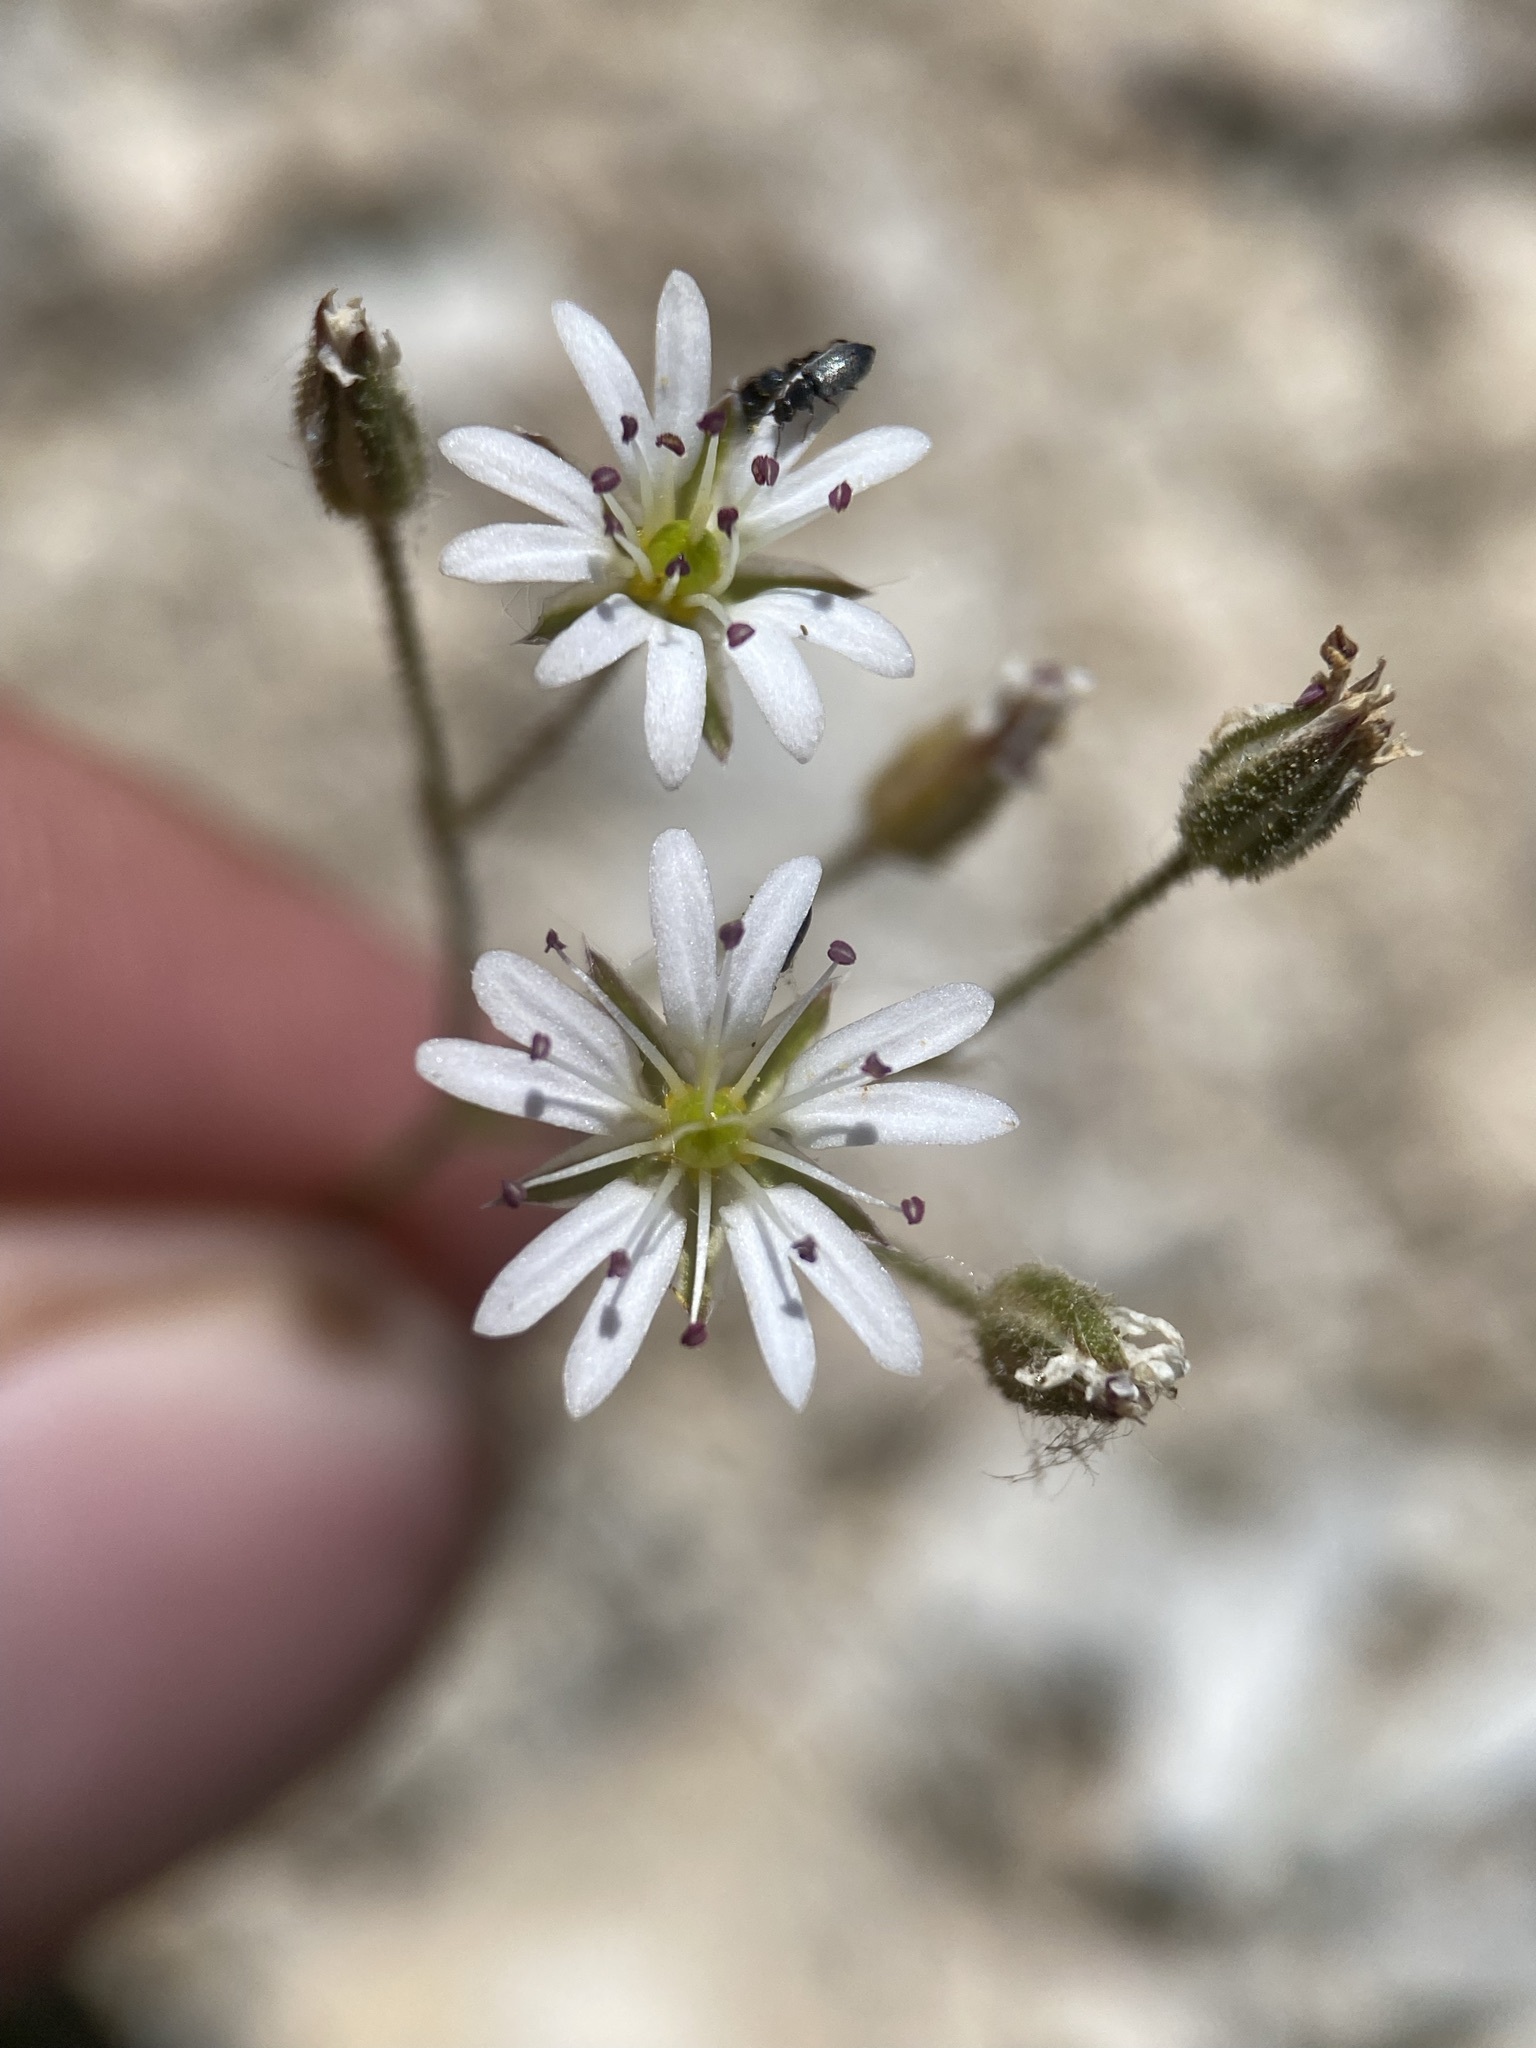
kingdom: Plantae
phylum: Tracheophyta
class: Magnoliopsida
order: Caryophyllales
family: Caryophyllaceae
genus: Eremogone
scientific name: Eremogone kingii
